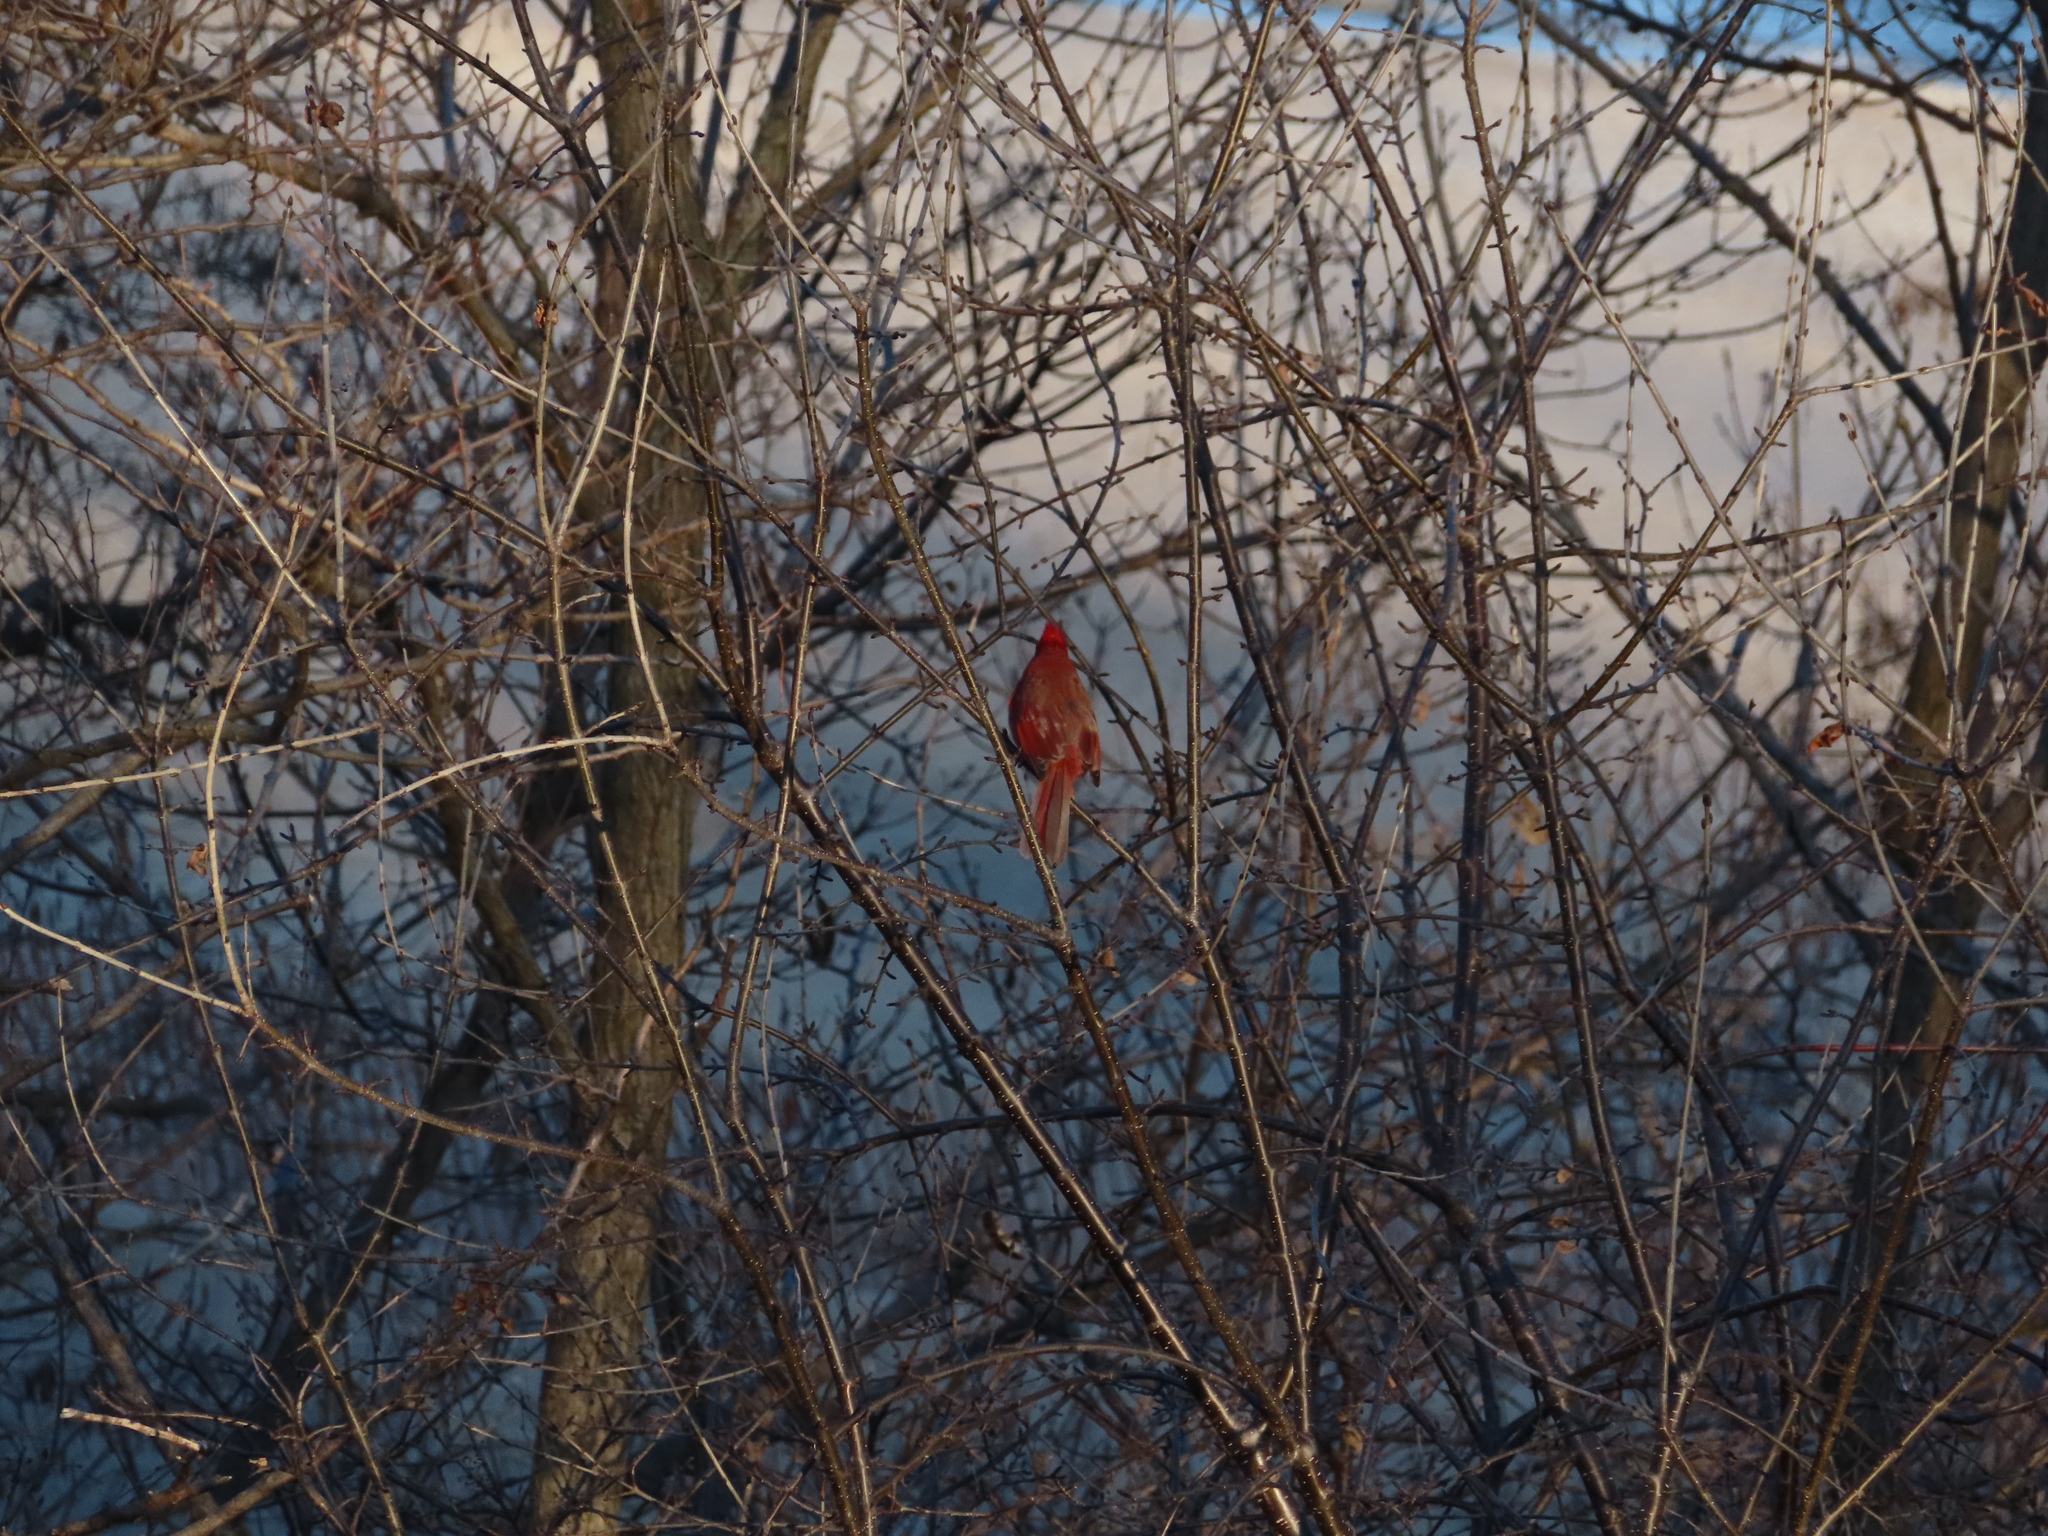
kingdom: Animalia
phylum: Chordata
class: Aves
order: Passeriformes
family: Cardinalidae
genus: Cardinalis
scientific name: Cardinalis cardinalis
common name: Northern cardinal
